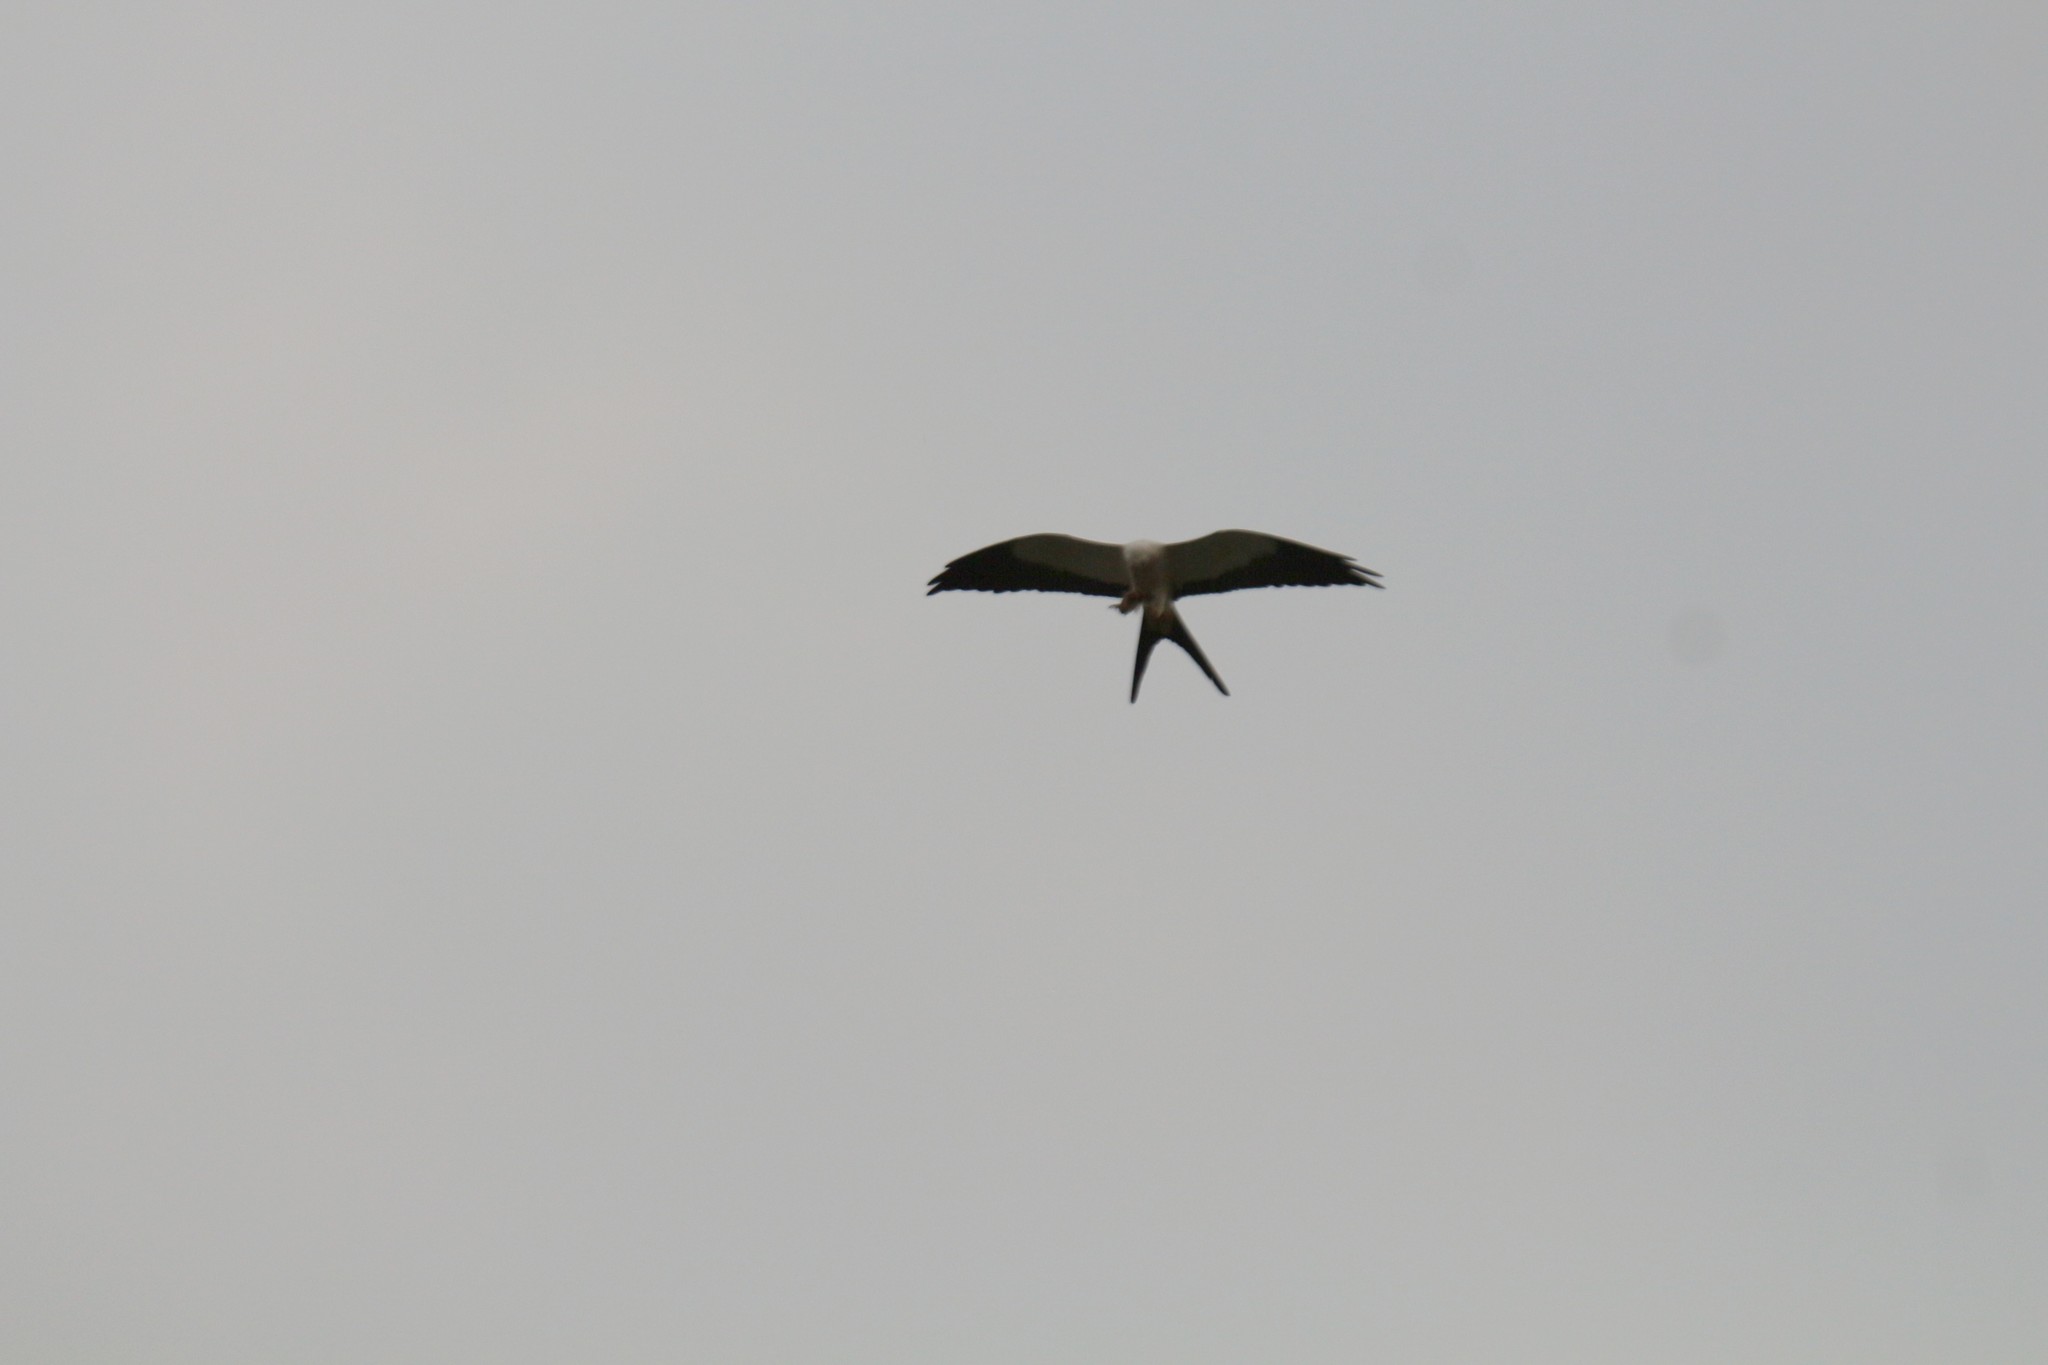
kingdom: Animalia
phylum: Chordata
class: Aves
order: Accipitriformes
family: Accipitridae
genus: Elanoides
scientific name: Elanoides forficatus
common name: Swallow-tailed kite
